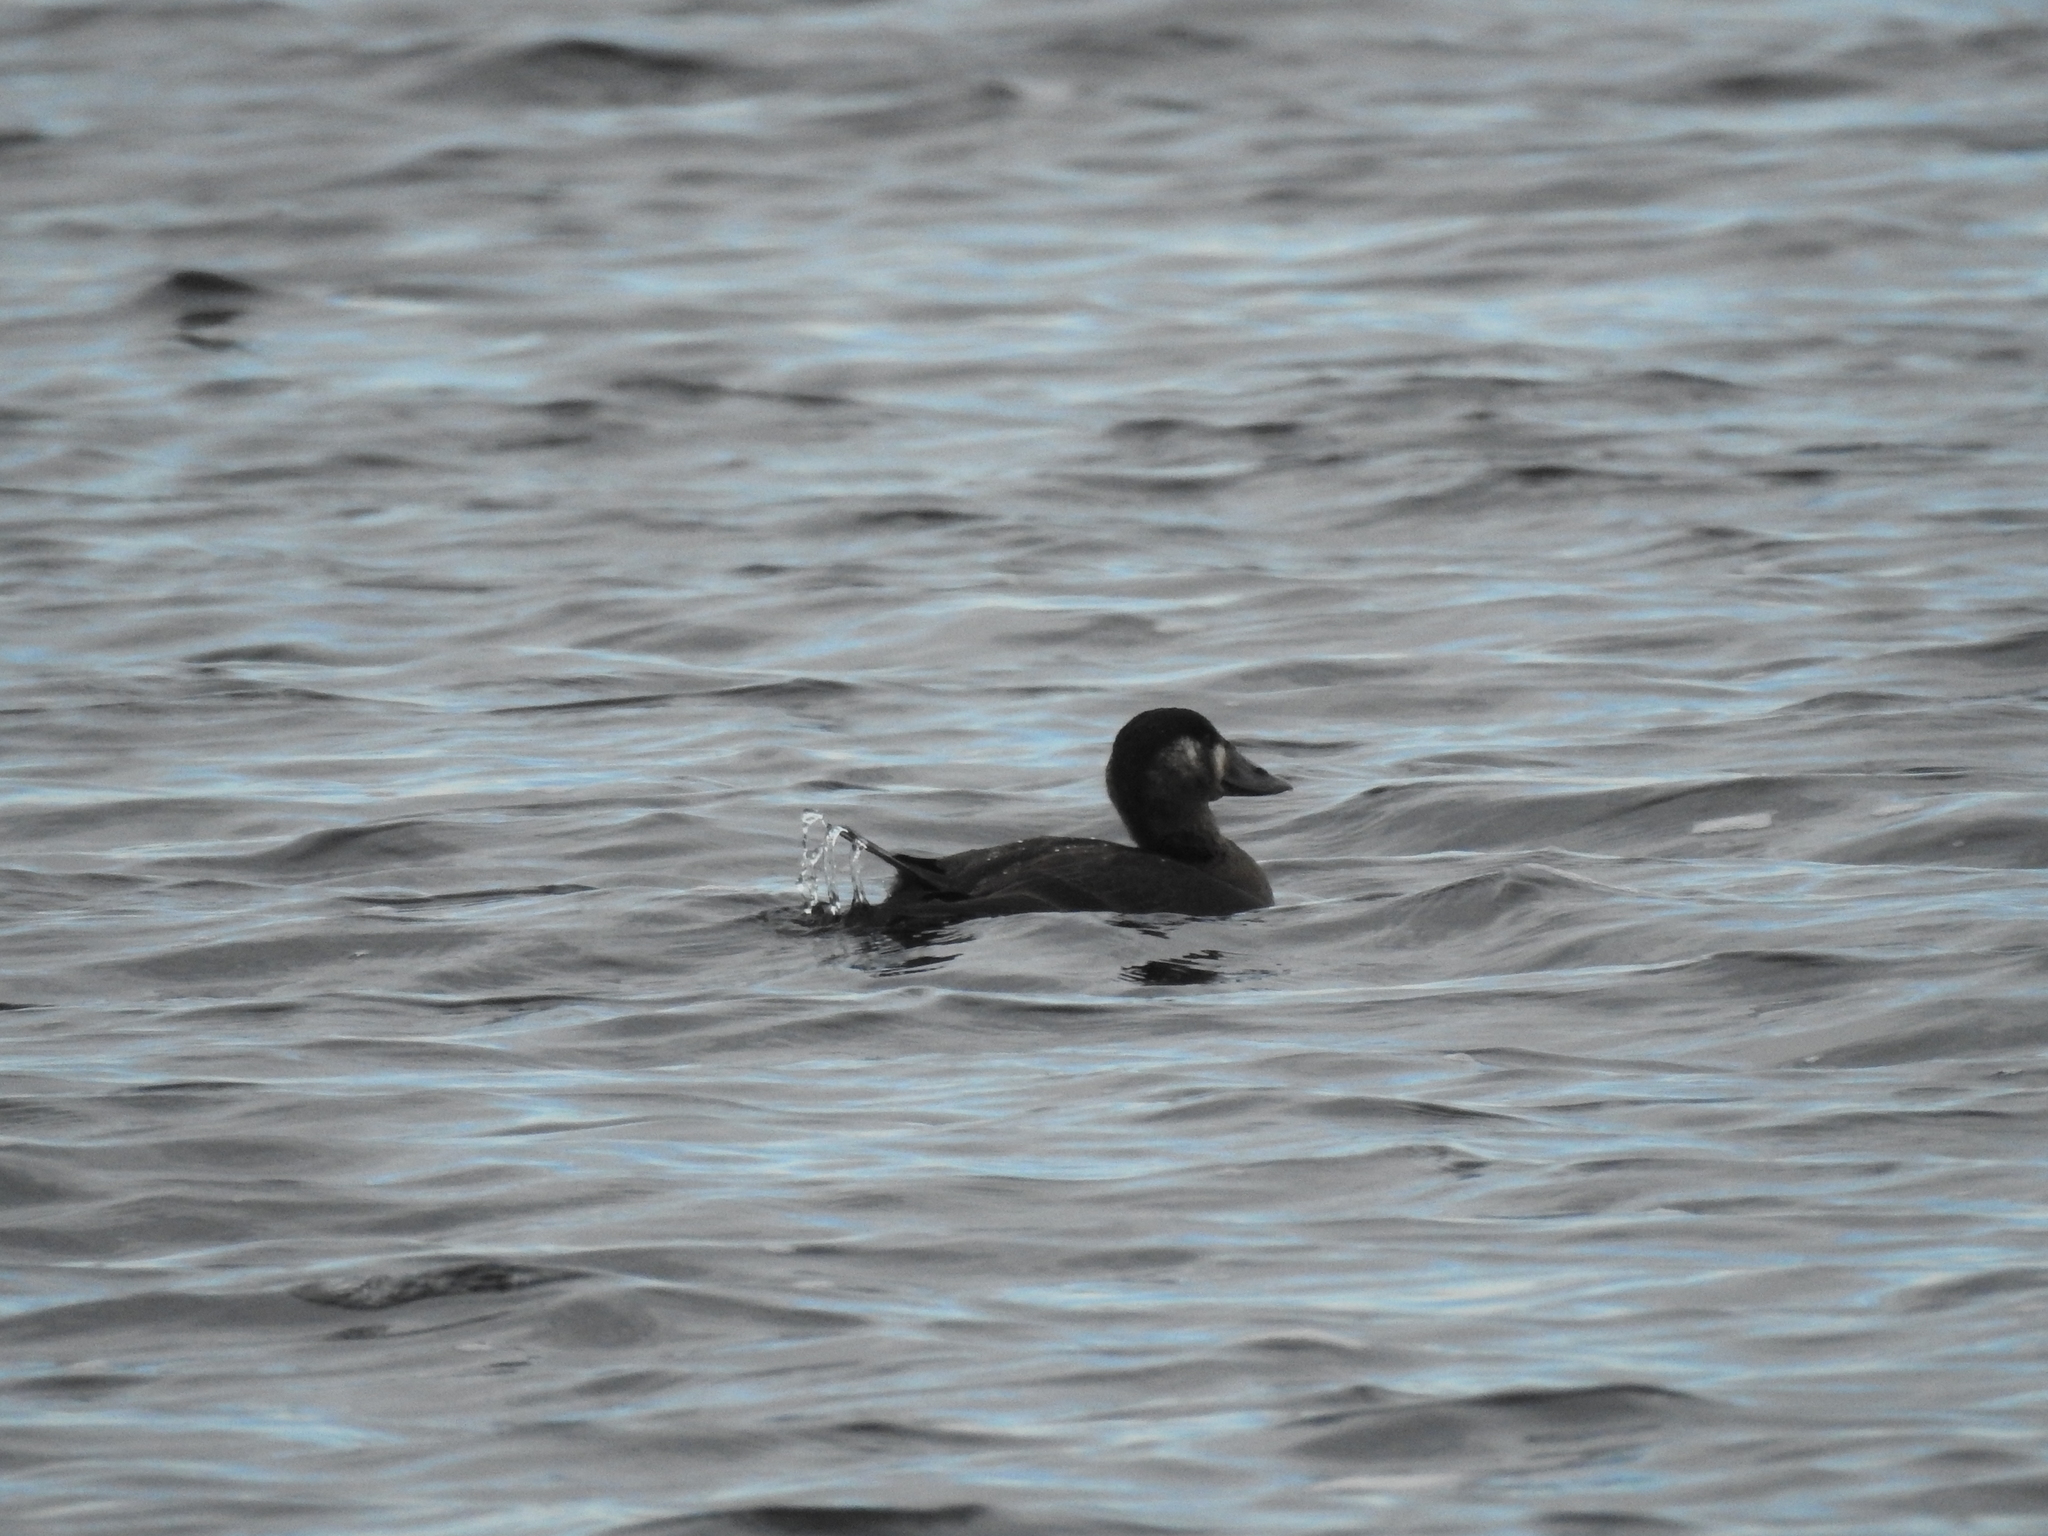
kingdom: Animalia
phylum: Chordata
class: Aves
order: Anseriformes
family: Anatidae
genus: Melanitta
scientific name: Melanitta perspicillata
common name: Surf scoter
